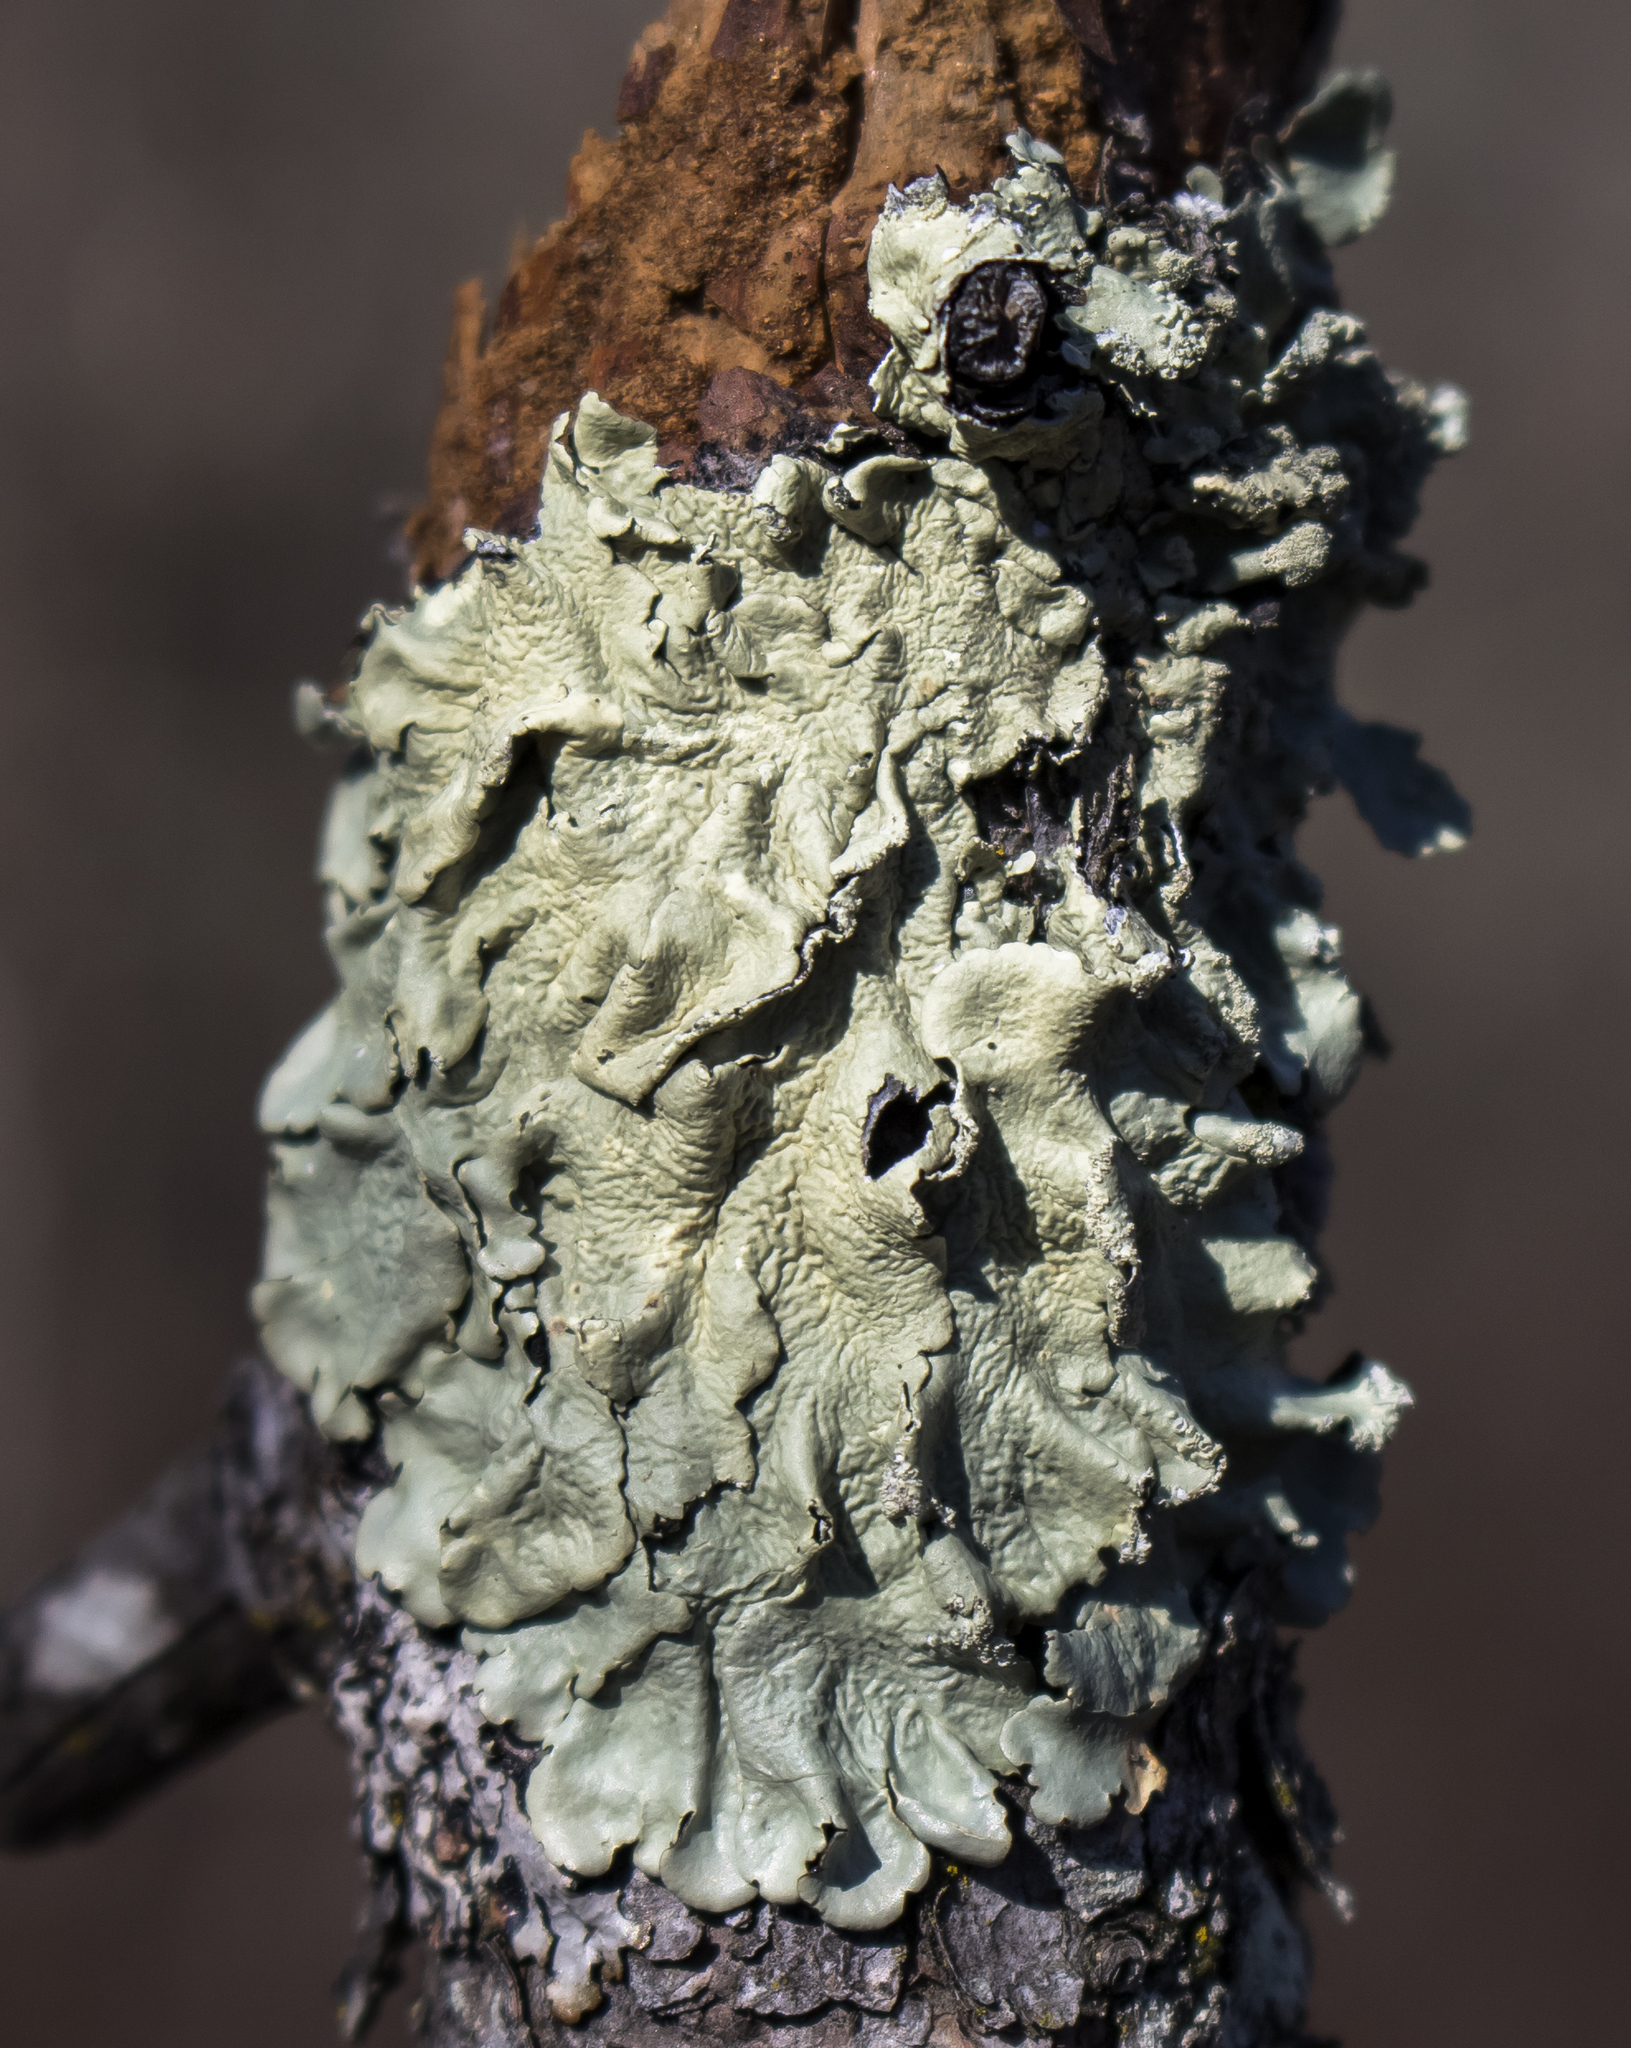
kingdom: Fungi
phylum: Ascomycota
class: Lecanoromycetes
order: Lecanorales
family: Parmeliaceae
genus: Flavoparmelia
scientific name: Flavoparmelia caperata
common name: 40-mile per hour lichen
